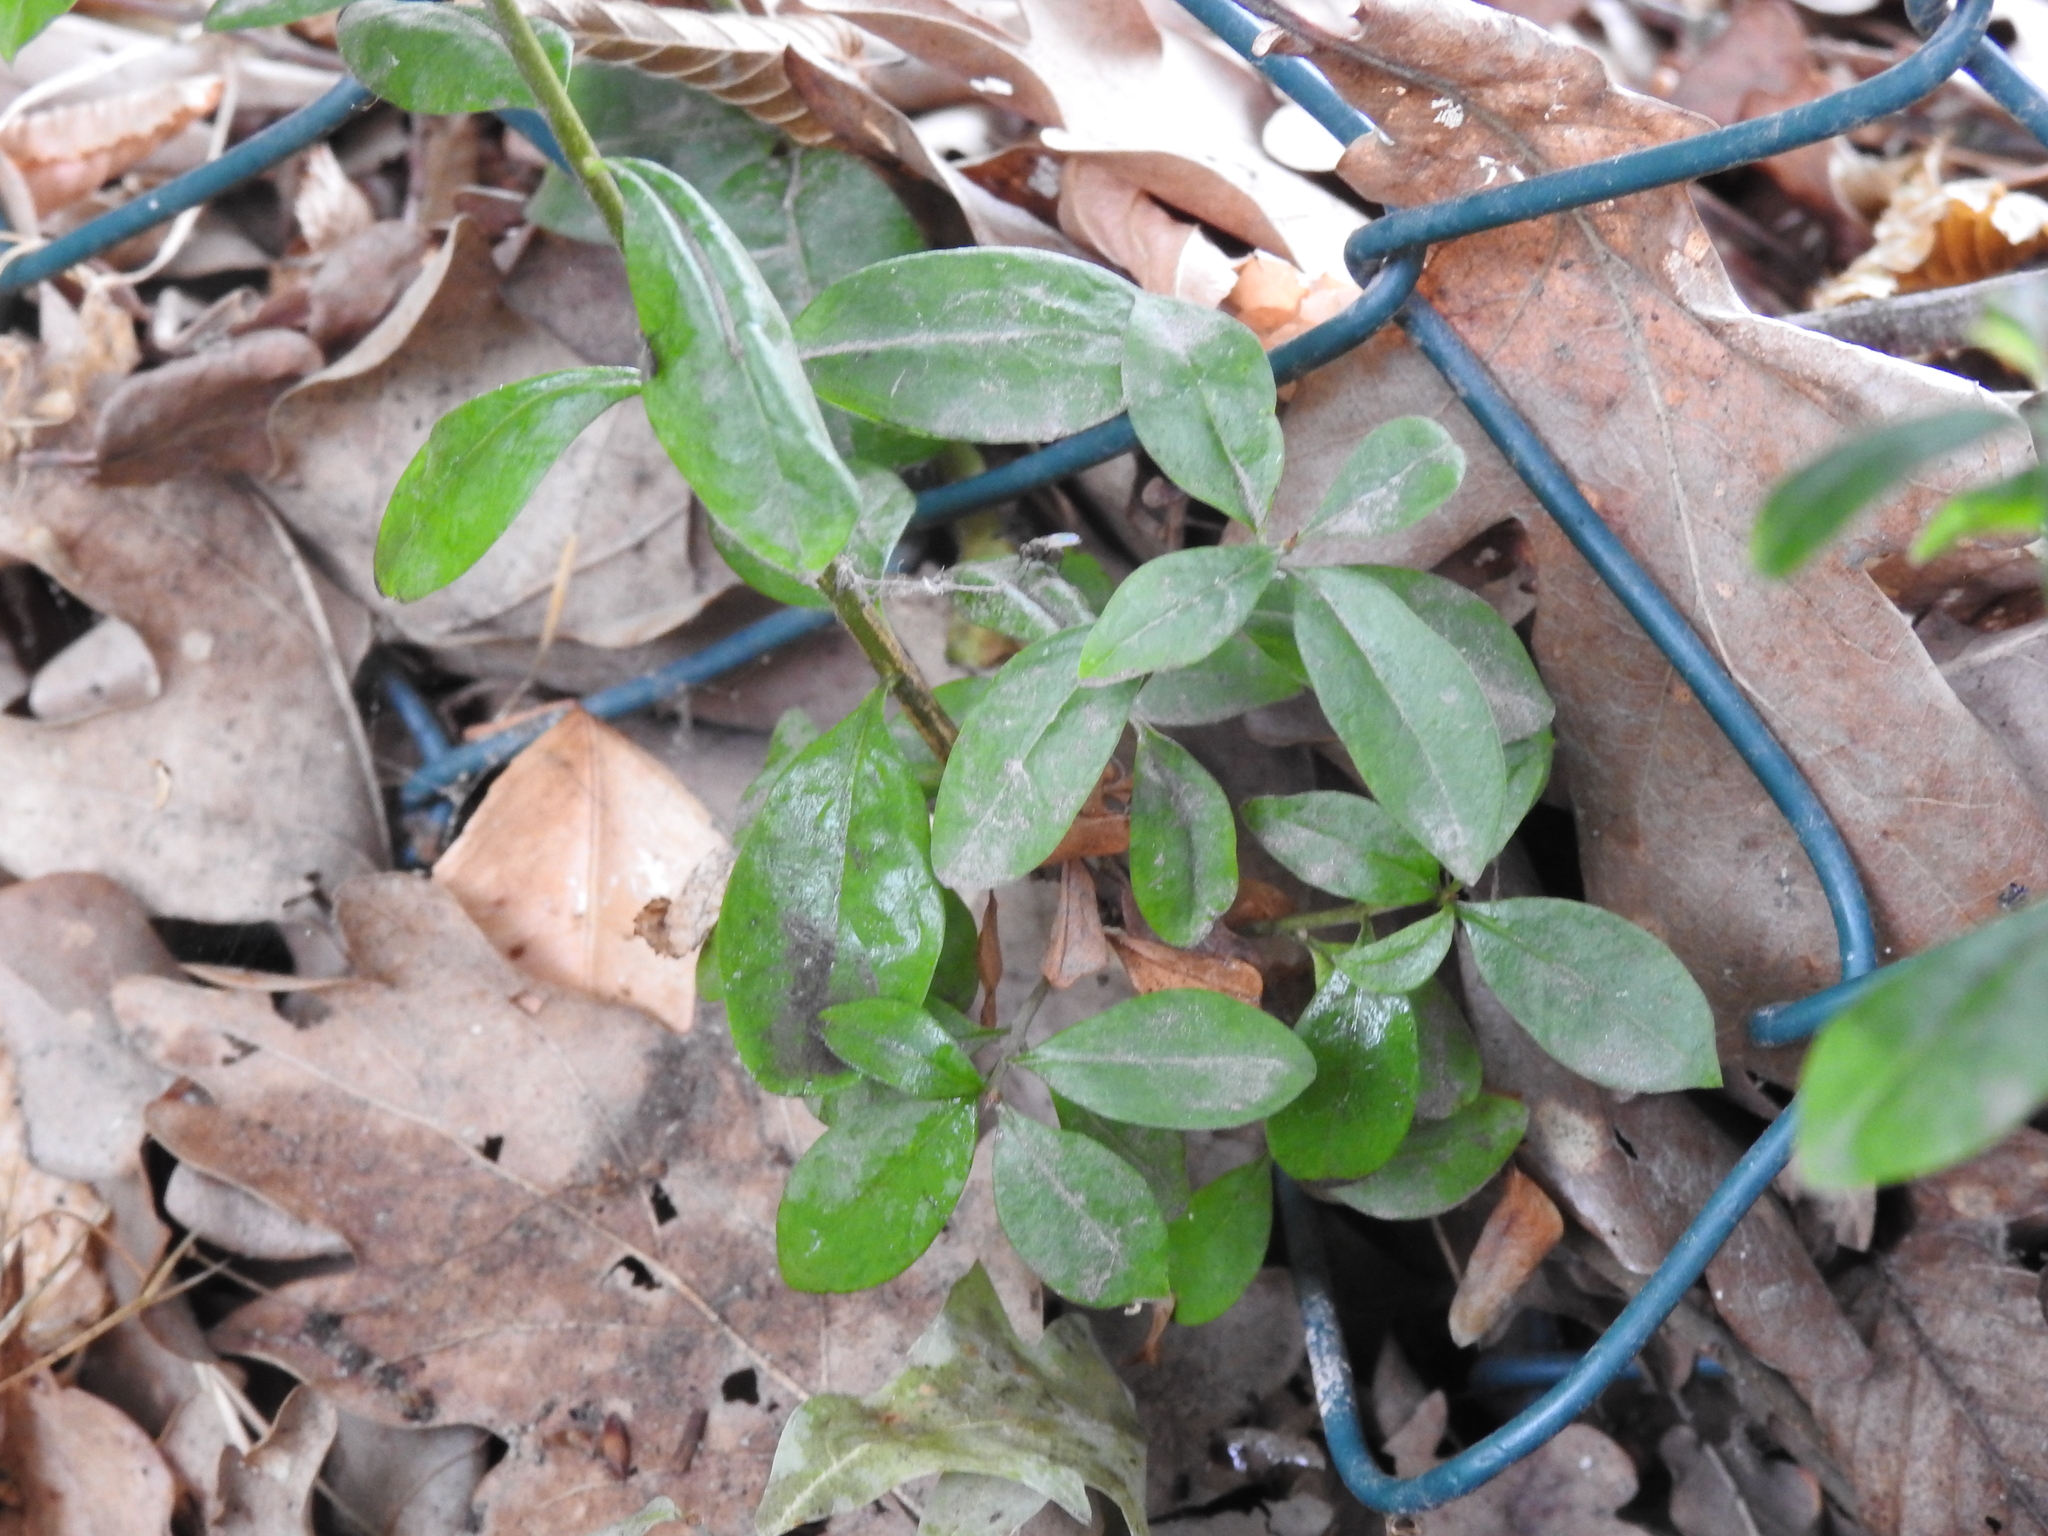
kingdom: Plantae
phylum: Tracheophyta
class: Magnoliopsida
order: Lamiales
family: Oleaceae
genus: Ligustrum
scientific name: Ligustrum vulgare
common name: Wild privet
